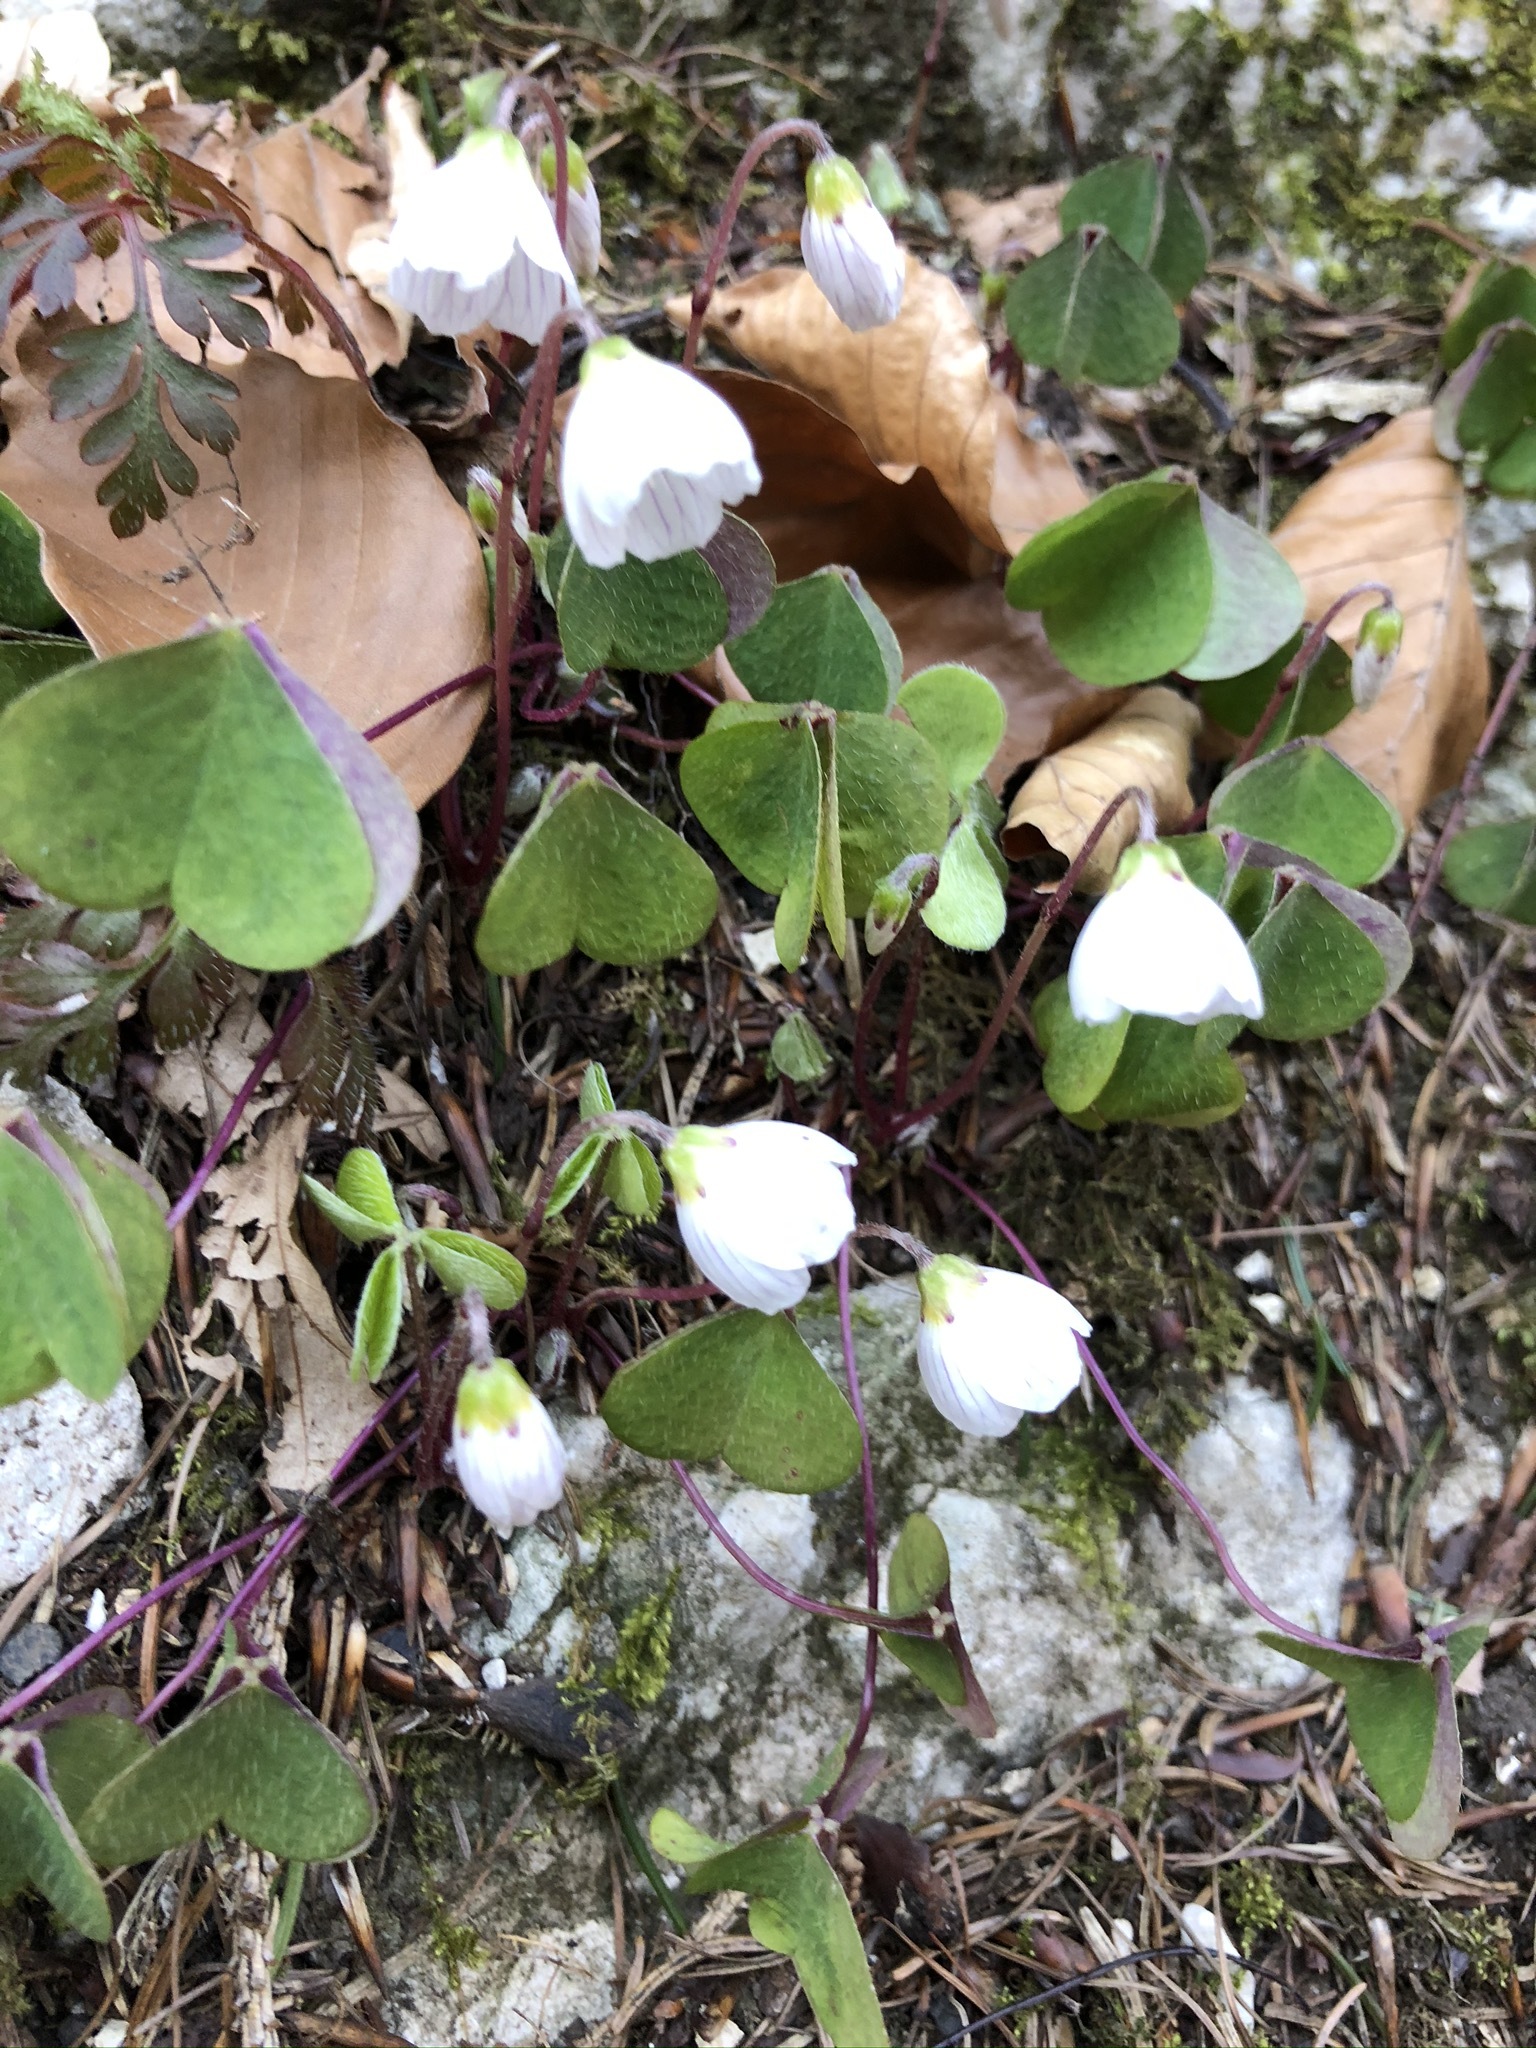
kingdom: Plantae
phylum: Tracheophyta
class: Magnoliopsida
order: Oxalidales
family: Oxalidaceae
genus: Oxalis
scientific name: Oxalis acetosella
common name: Wood-sorrel
